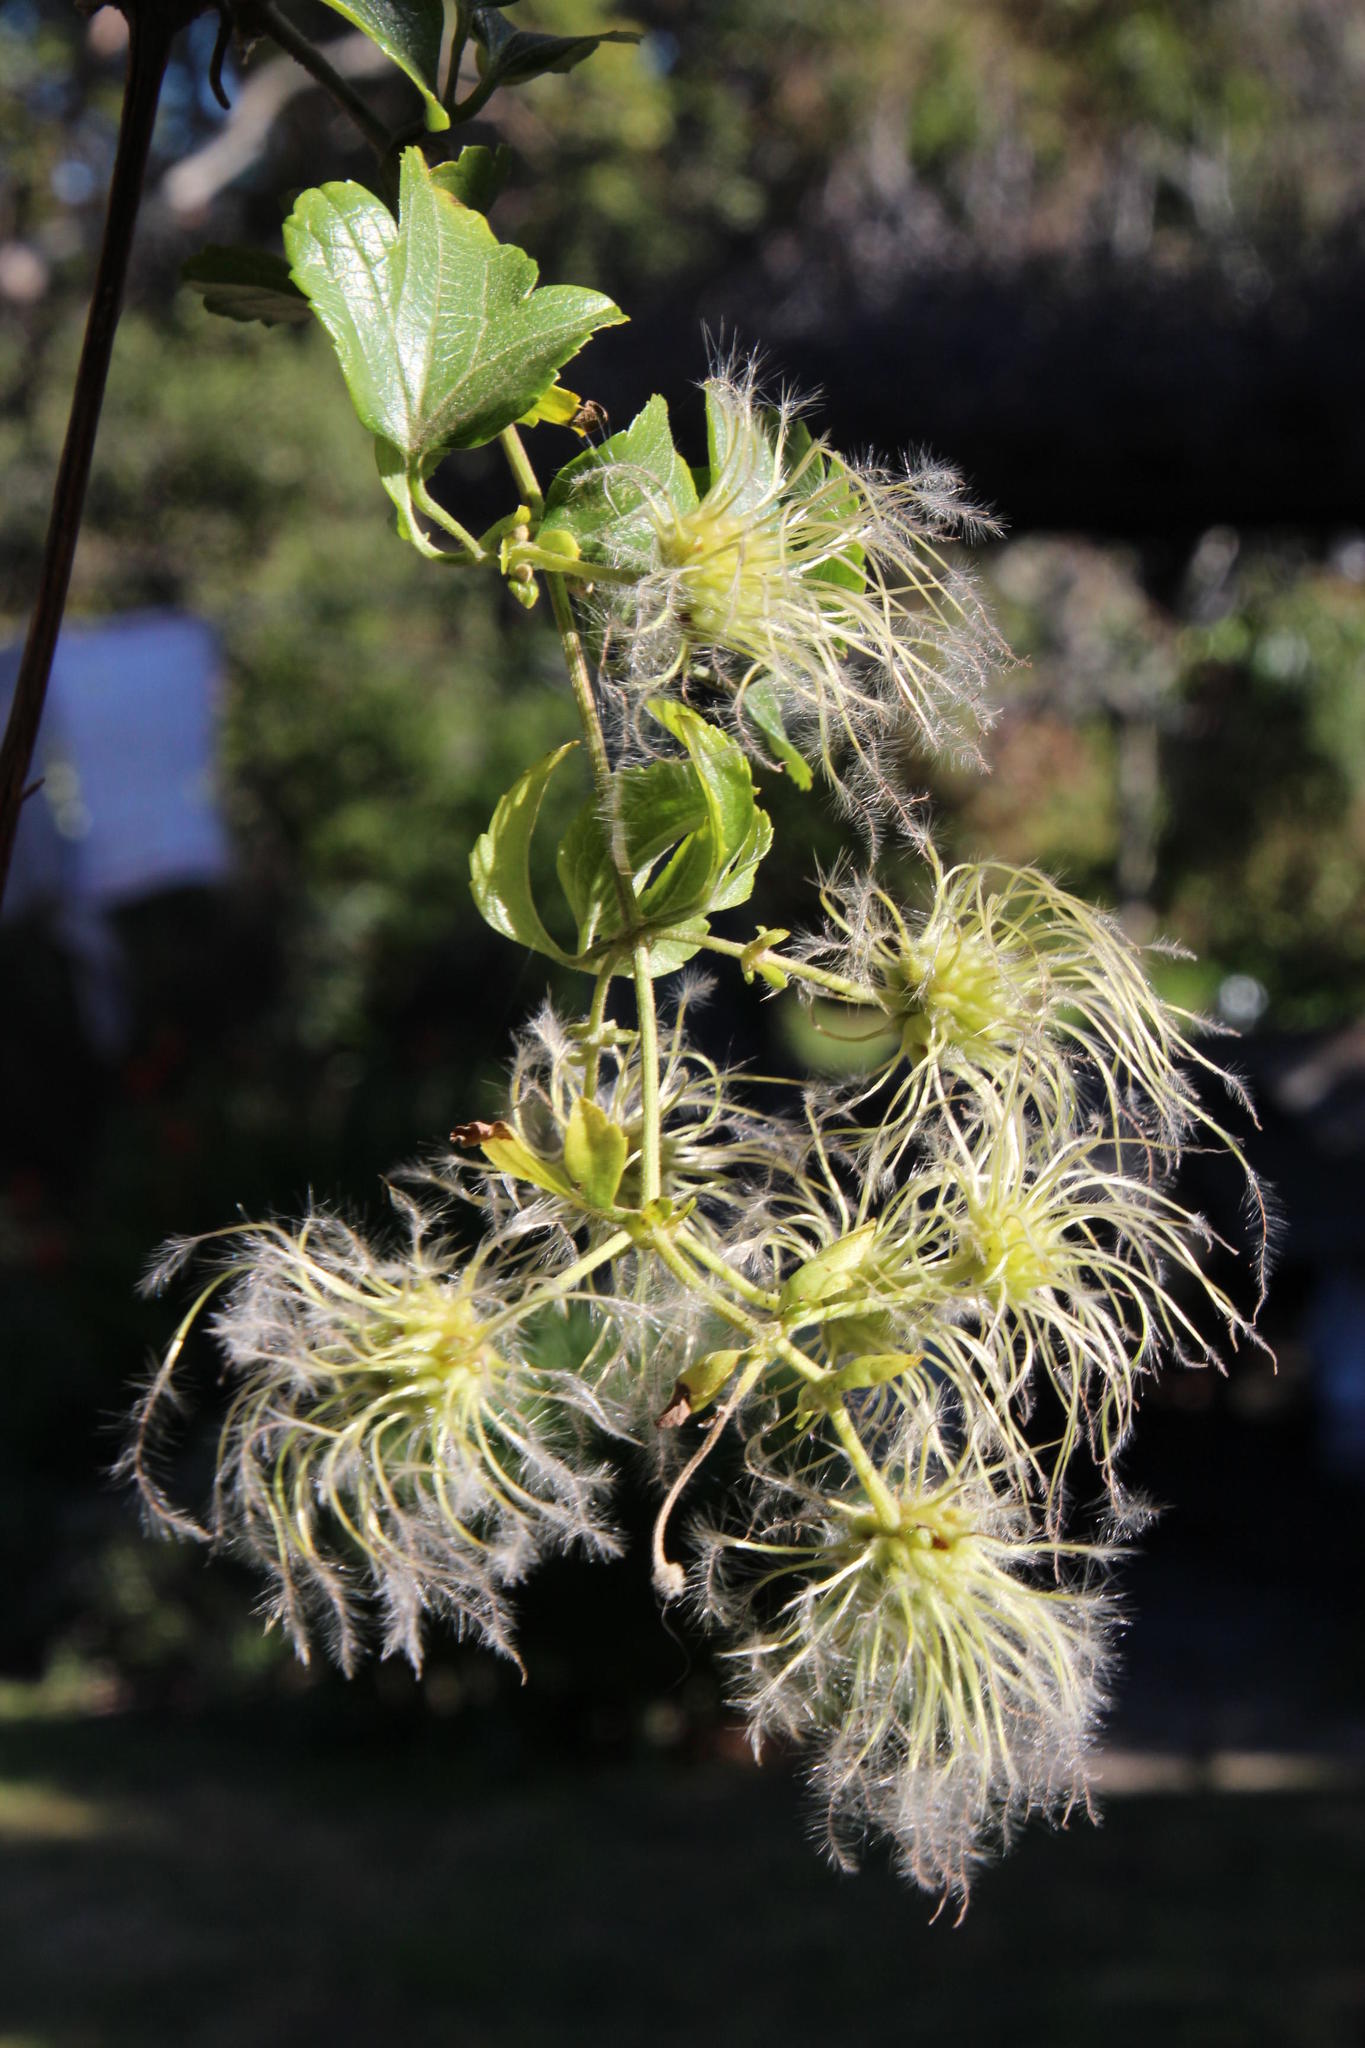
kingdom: Plantae
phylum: Tracheophyta
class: Magnoliopsida
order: Ranunculales
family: Ranunculaceae
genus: Clematis
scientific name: Clematis brachiata
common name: Traveler's-joy
